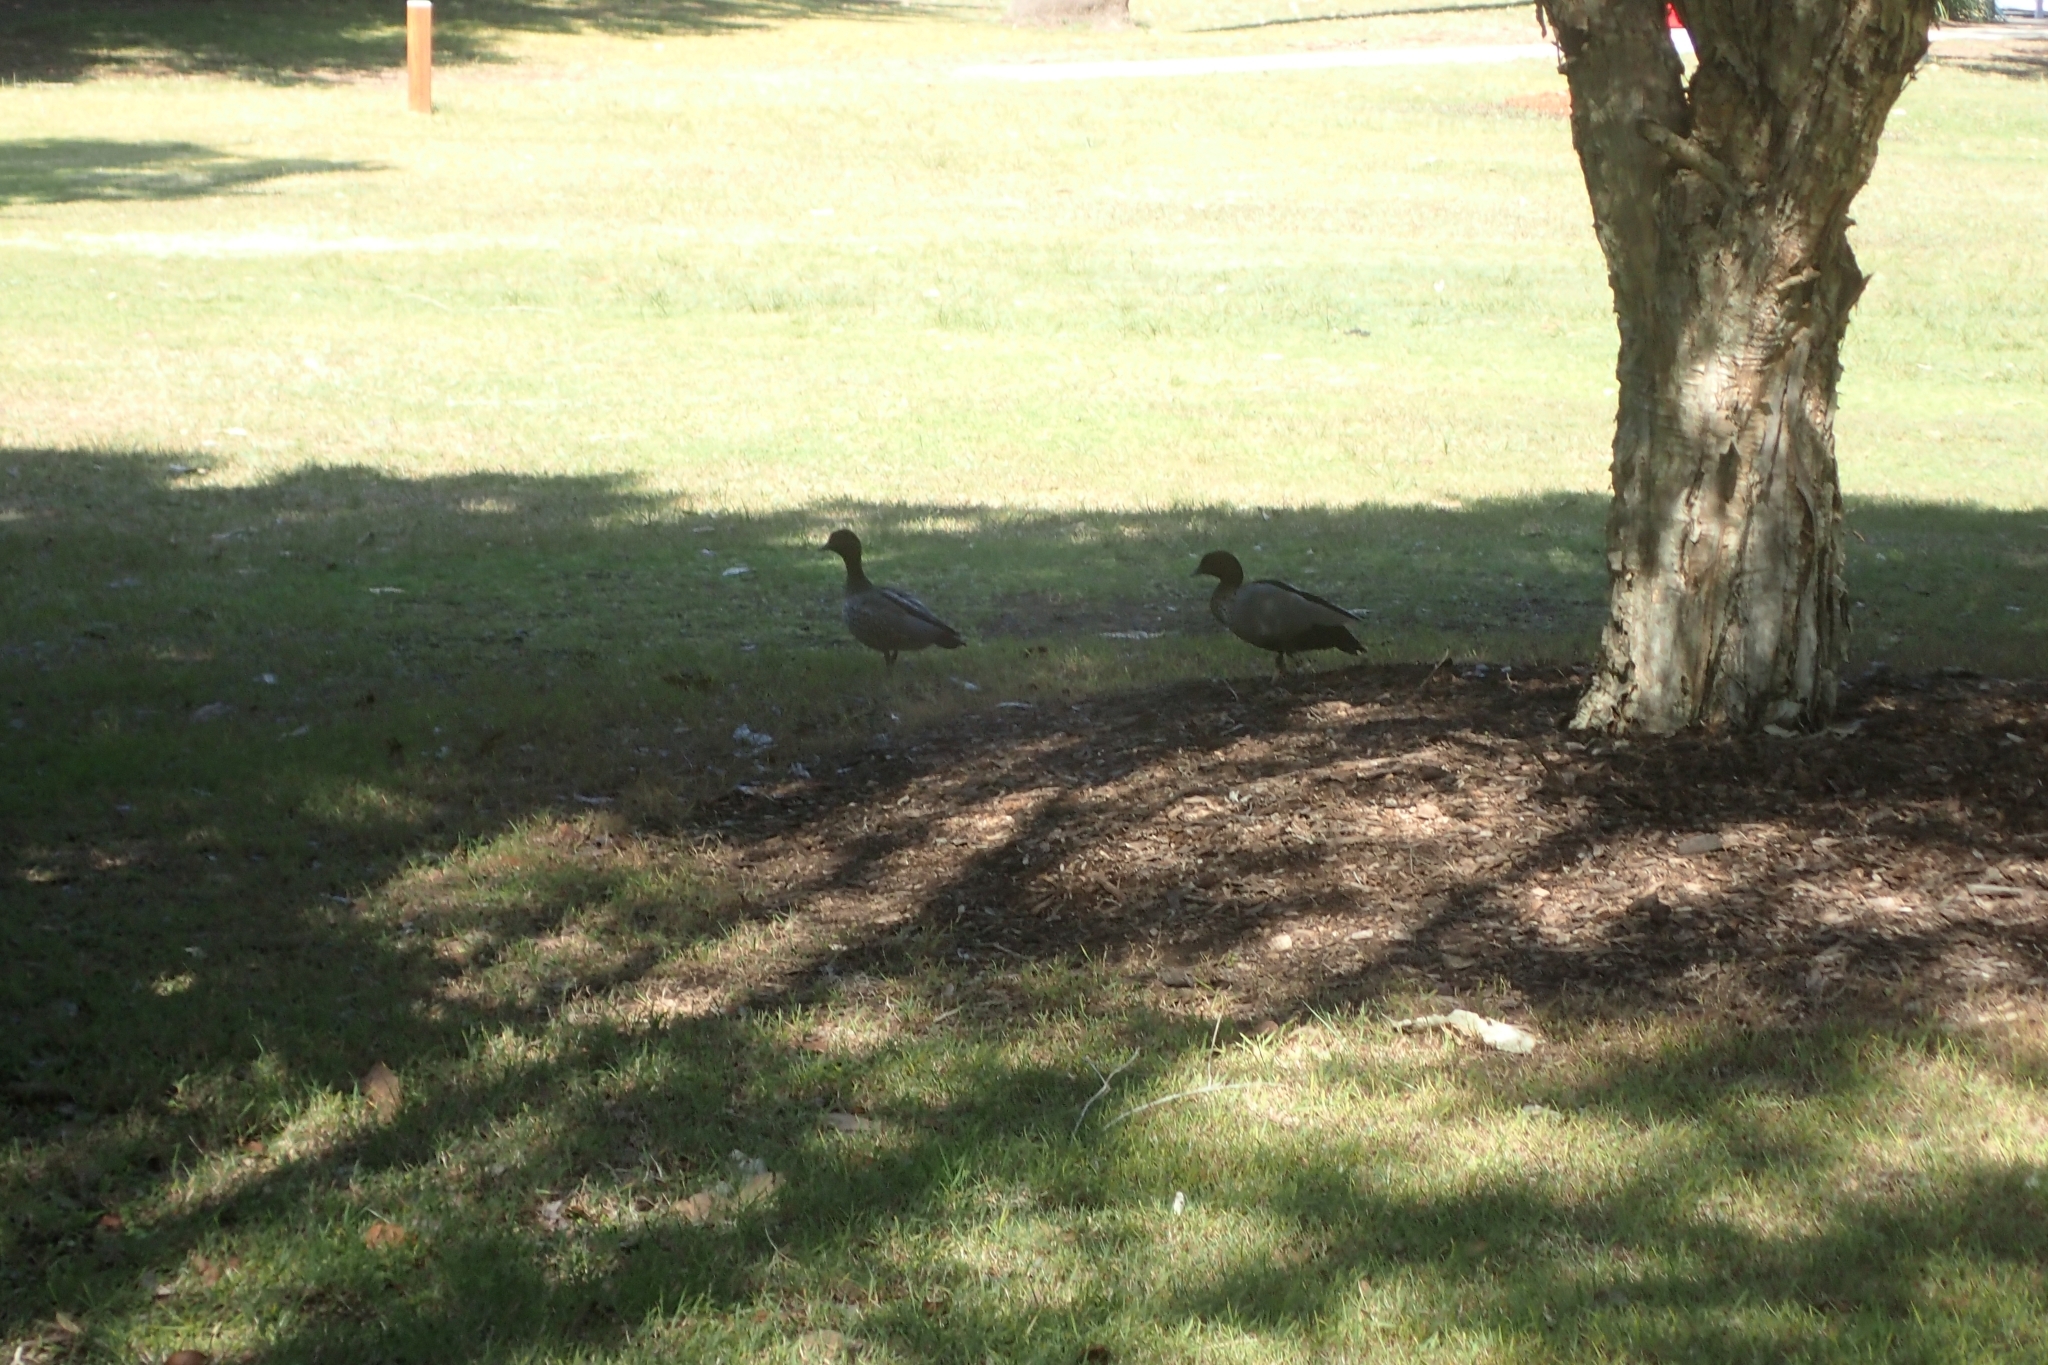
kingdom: Animalia
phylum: Chordata
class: Aves
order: Anseriformes
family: Anatidae
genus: Chenonetta
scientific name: Chenonetta jubata
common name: Maned duck
